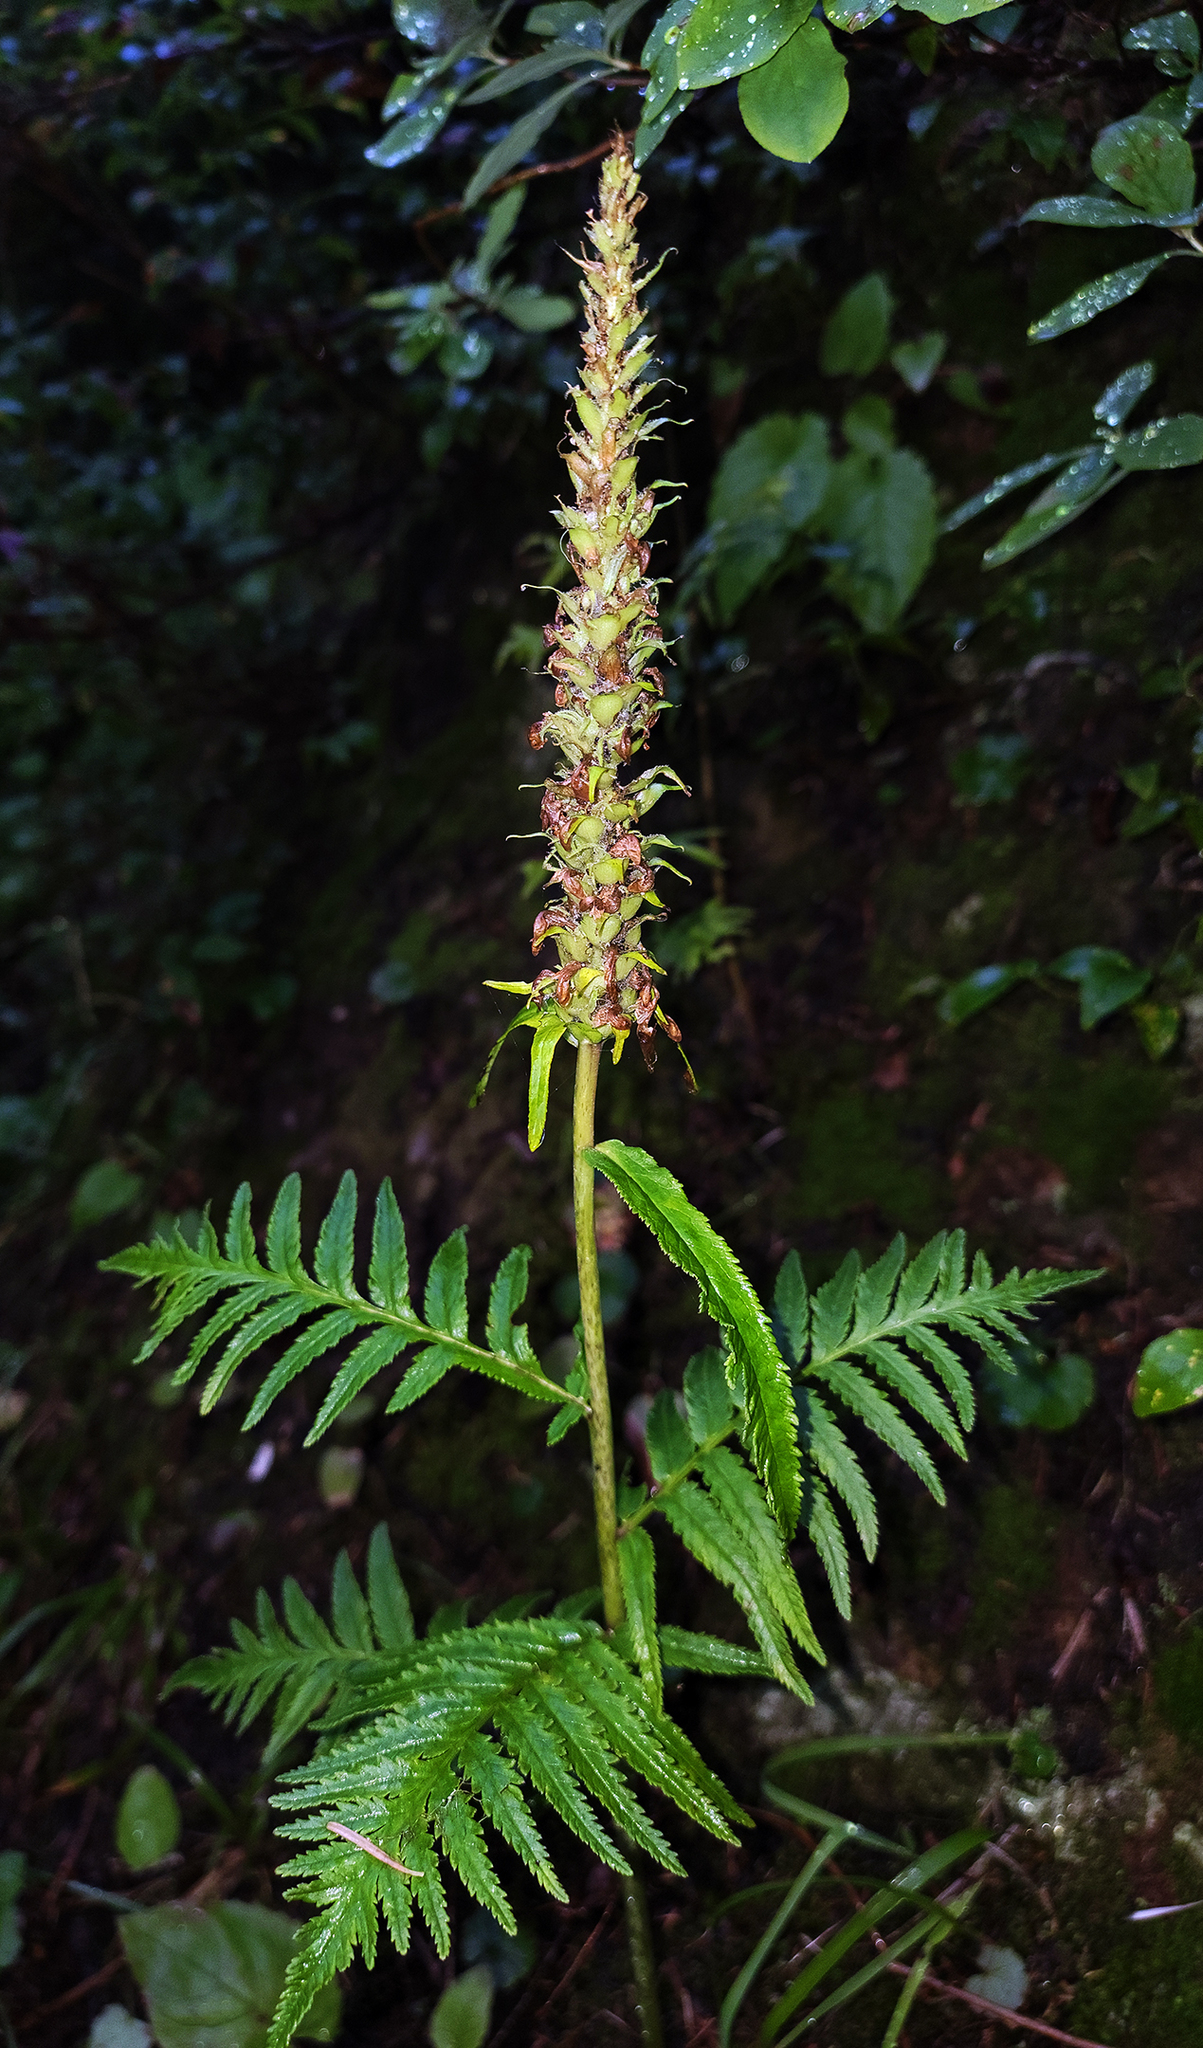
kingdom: Plantae
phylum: Tracheophyta
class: Magnoliopsida
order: Lamiales
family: Orobanchaceae
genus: Pedicularis
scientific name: Pedicularis bracteosa
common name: Bracted lousewort
